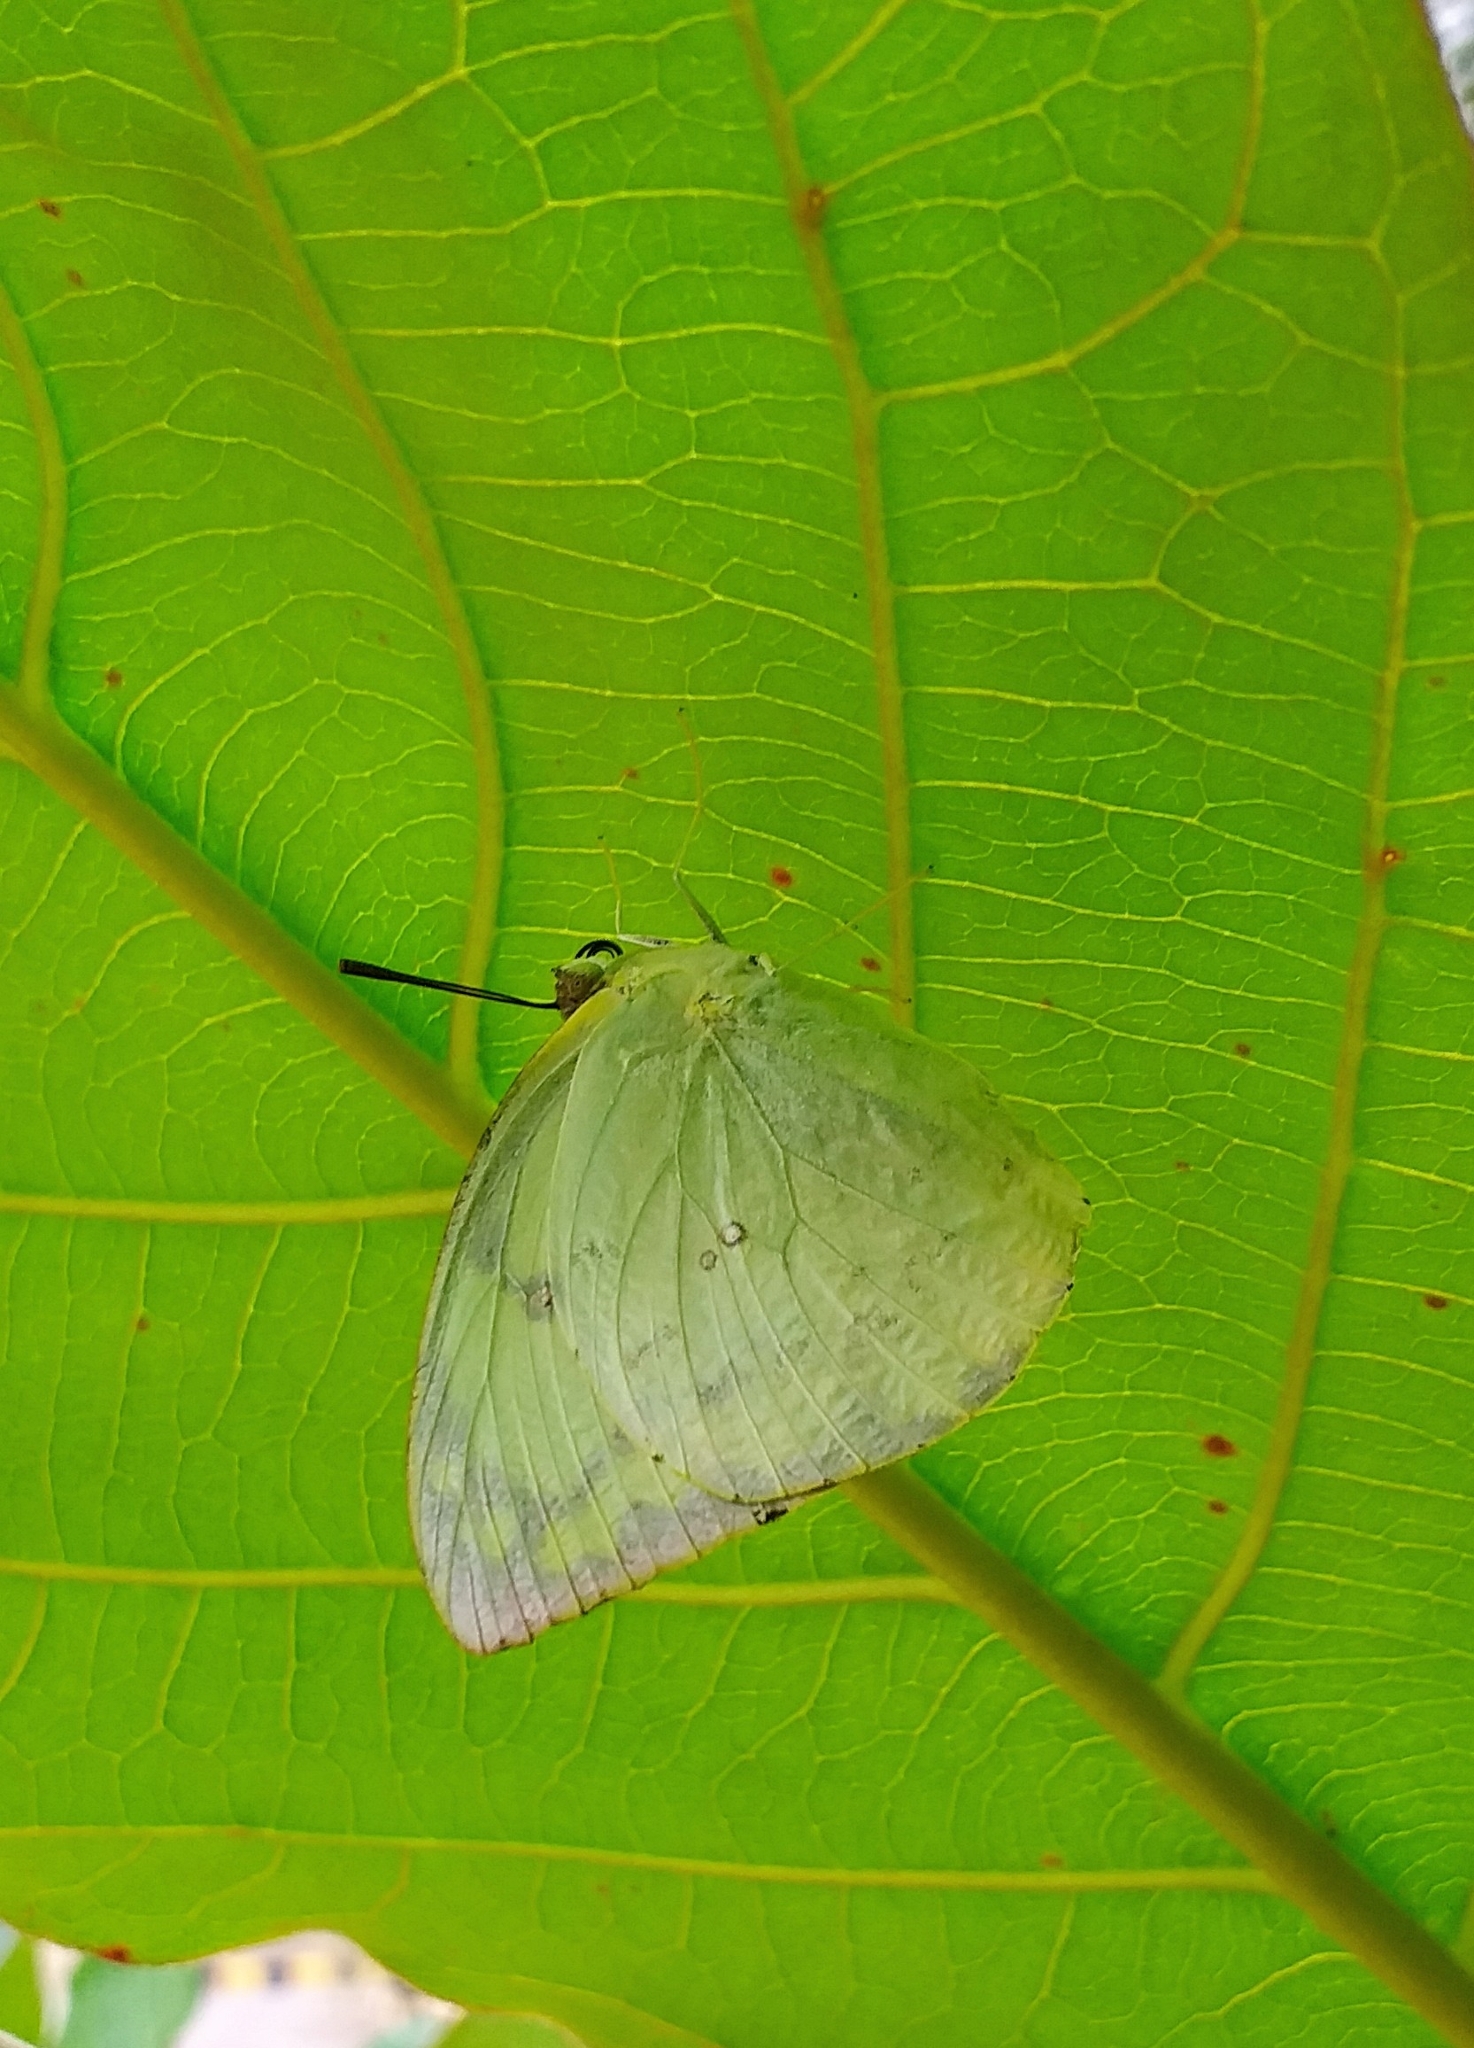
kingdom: Animalia
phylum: Arthropoda
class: Insecta
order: Lepidoptera
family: Pieridae
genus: Catopsilia
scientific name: Catopsilia pomona
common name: Common emigrant
